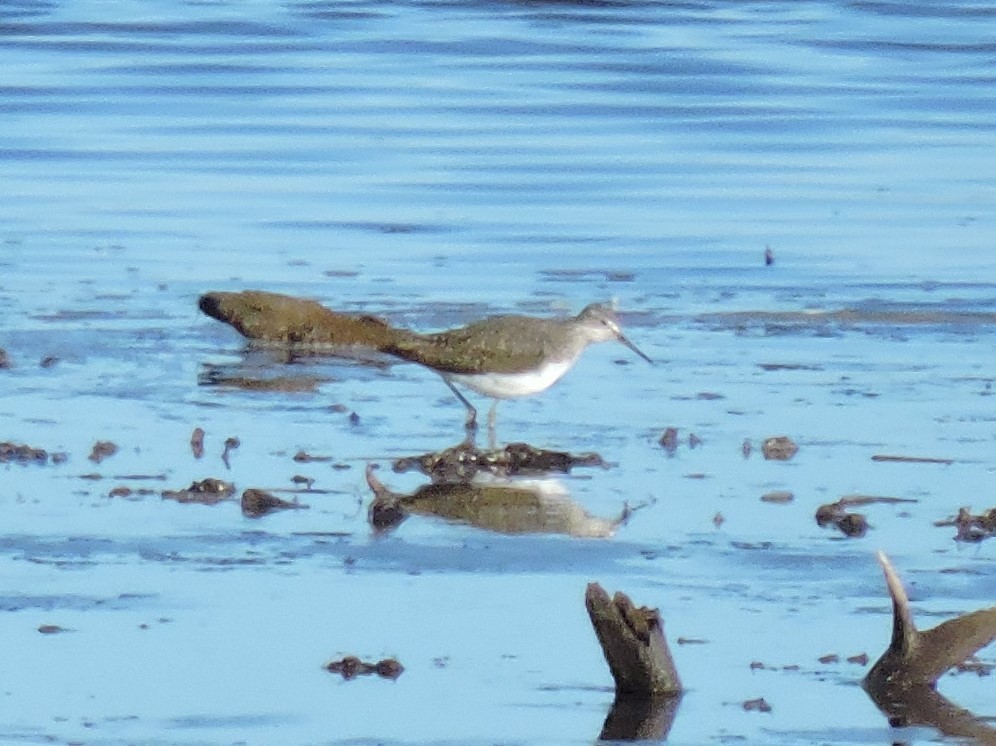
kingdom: Animalia
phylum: Chordata
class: Aves
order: Charadriiformes
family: Scolopacidae
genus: Tringa
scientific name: Tringa ochropus
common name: Green sandpiper
